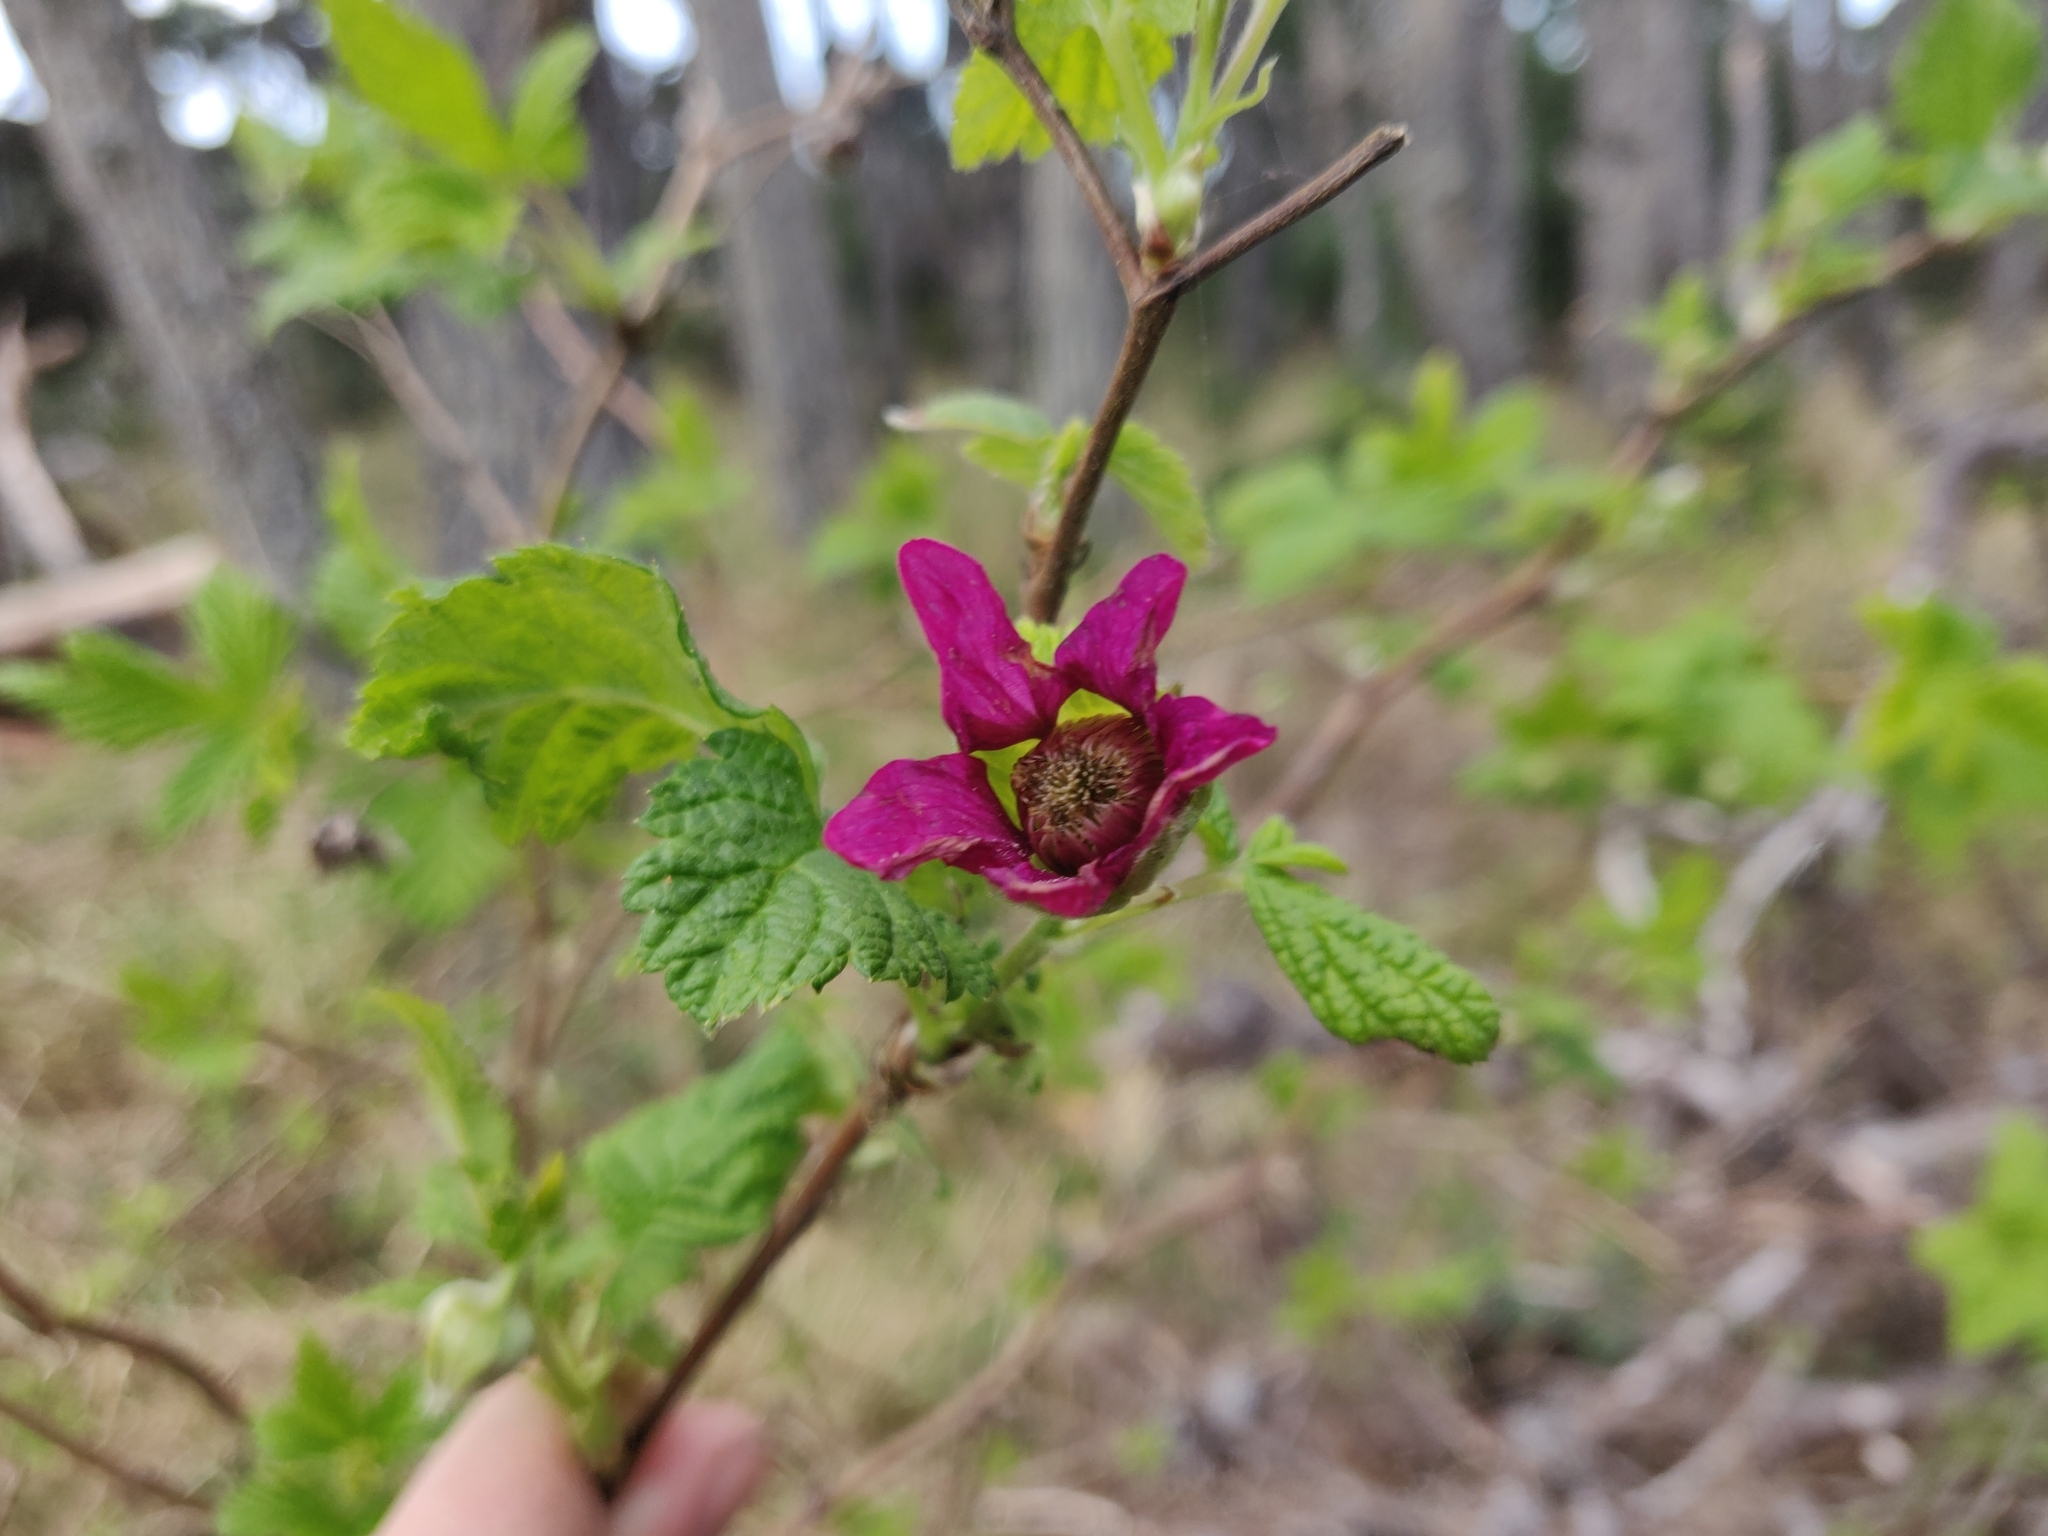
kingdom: Plantae
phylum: Tracheophyta
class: Magnoliopsida
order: Rosales
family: Rosaceae
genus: Rubus
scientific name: Rubus spectabilis
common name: Salmonberry
